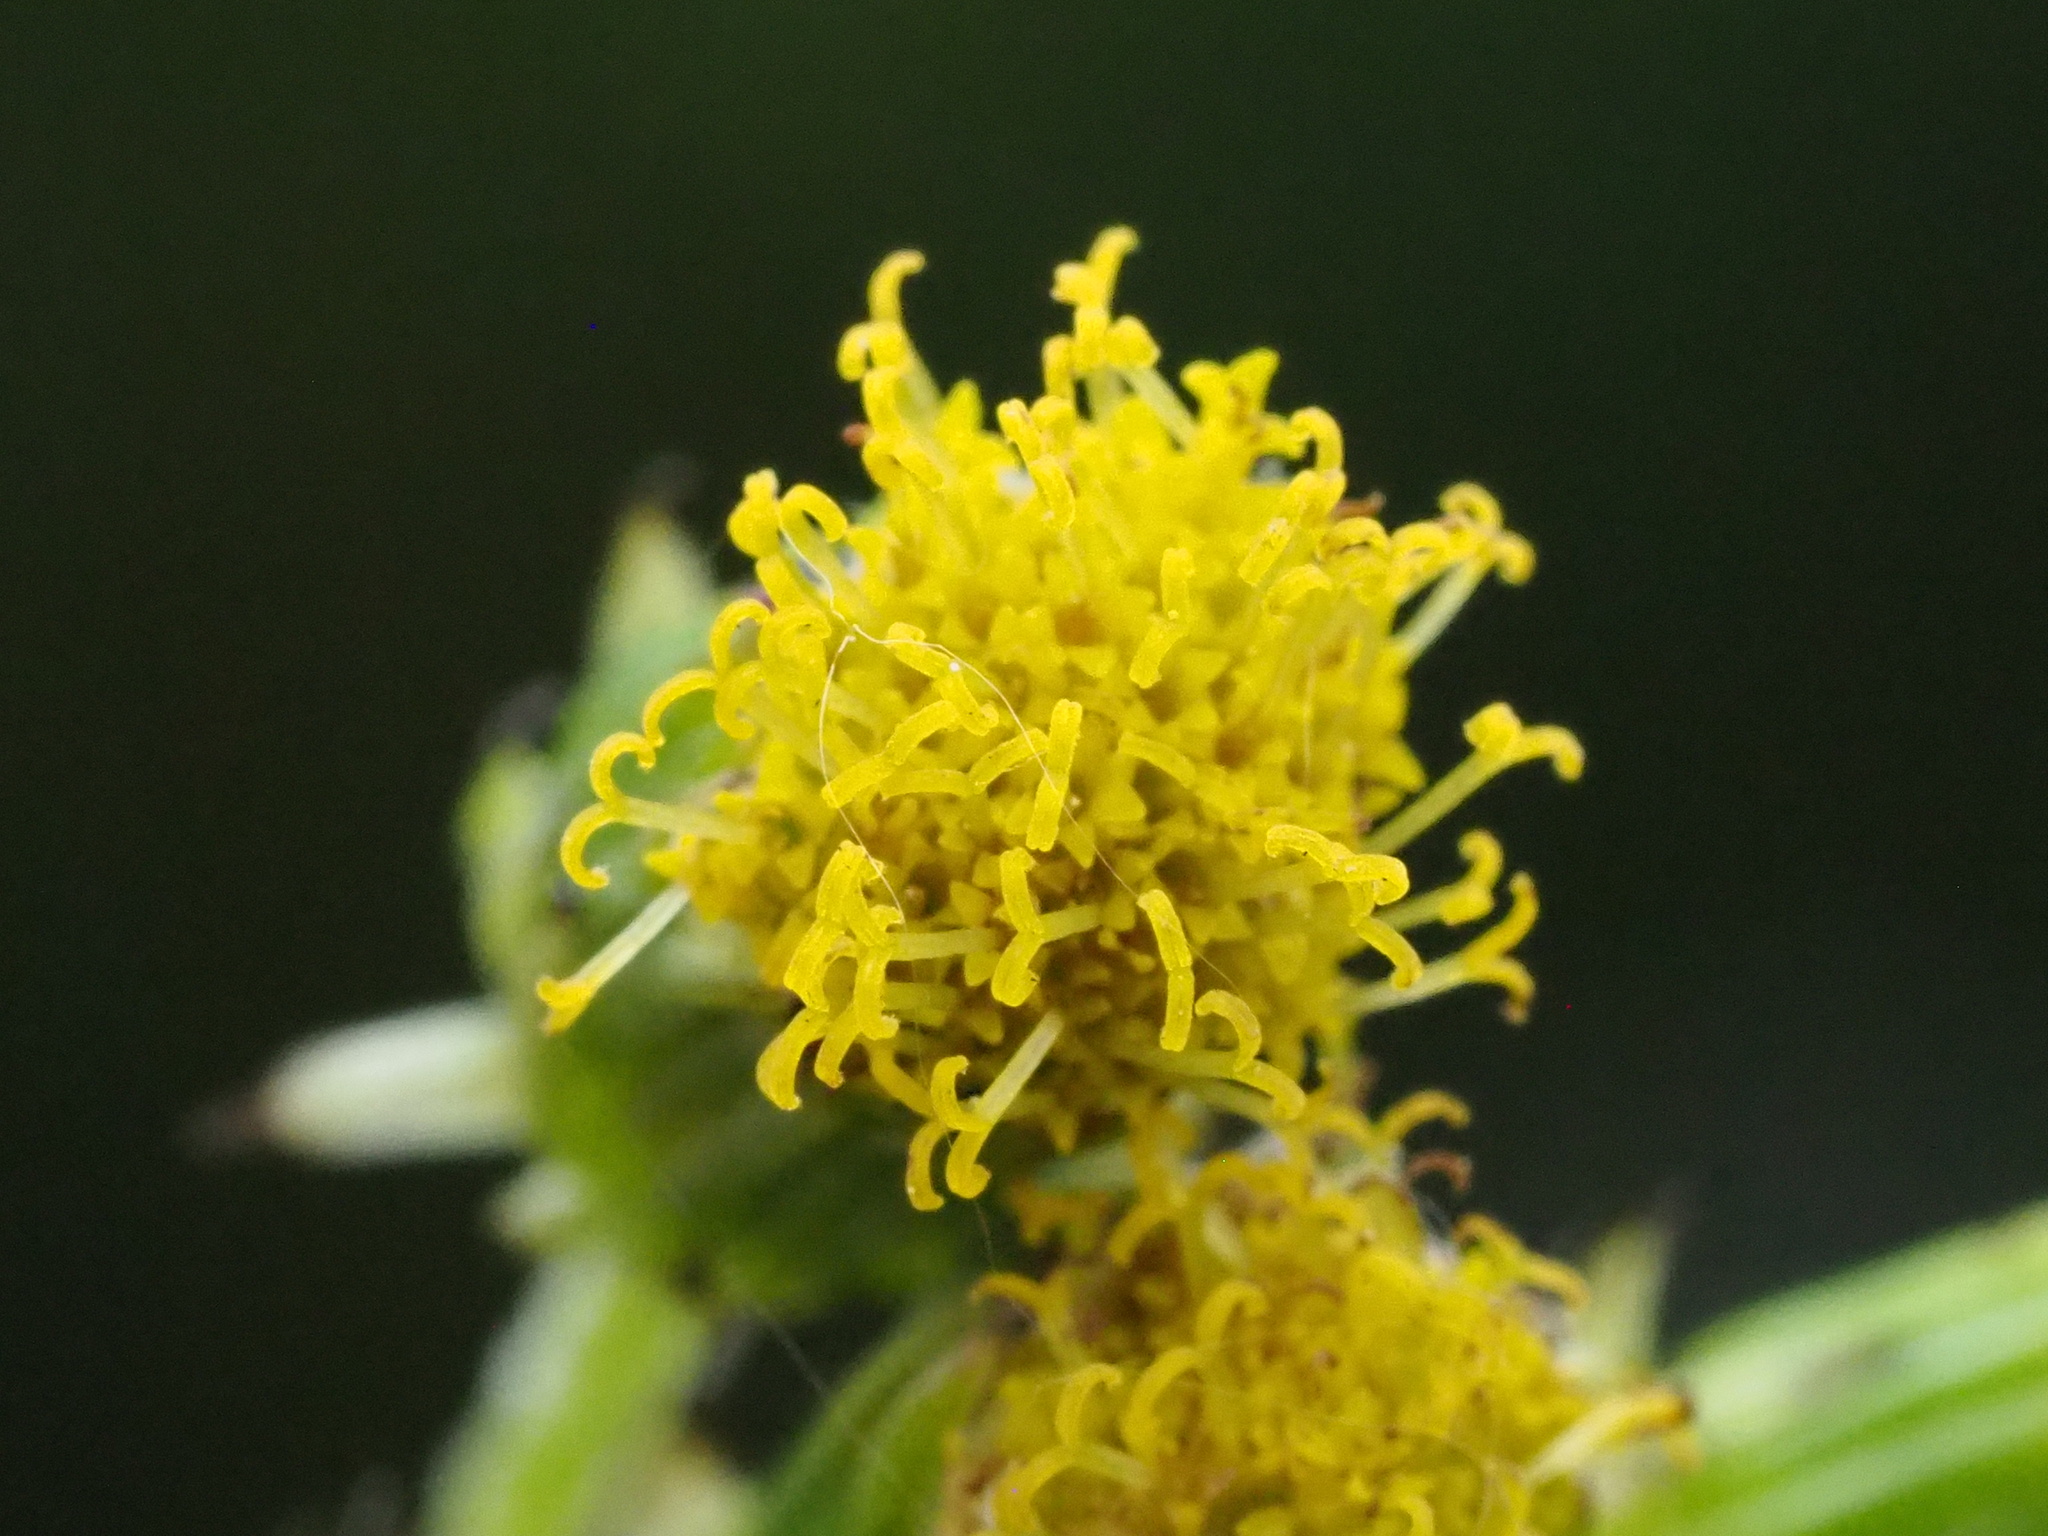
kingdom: Plantae
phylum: Tracheophyta
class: Magnoliopsida
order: Asterales
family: Asteraceae
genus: Senecio
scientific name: Senecio vulgaris
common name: Old-man-in-the-spring
